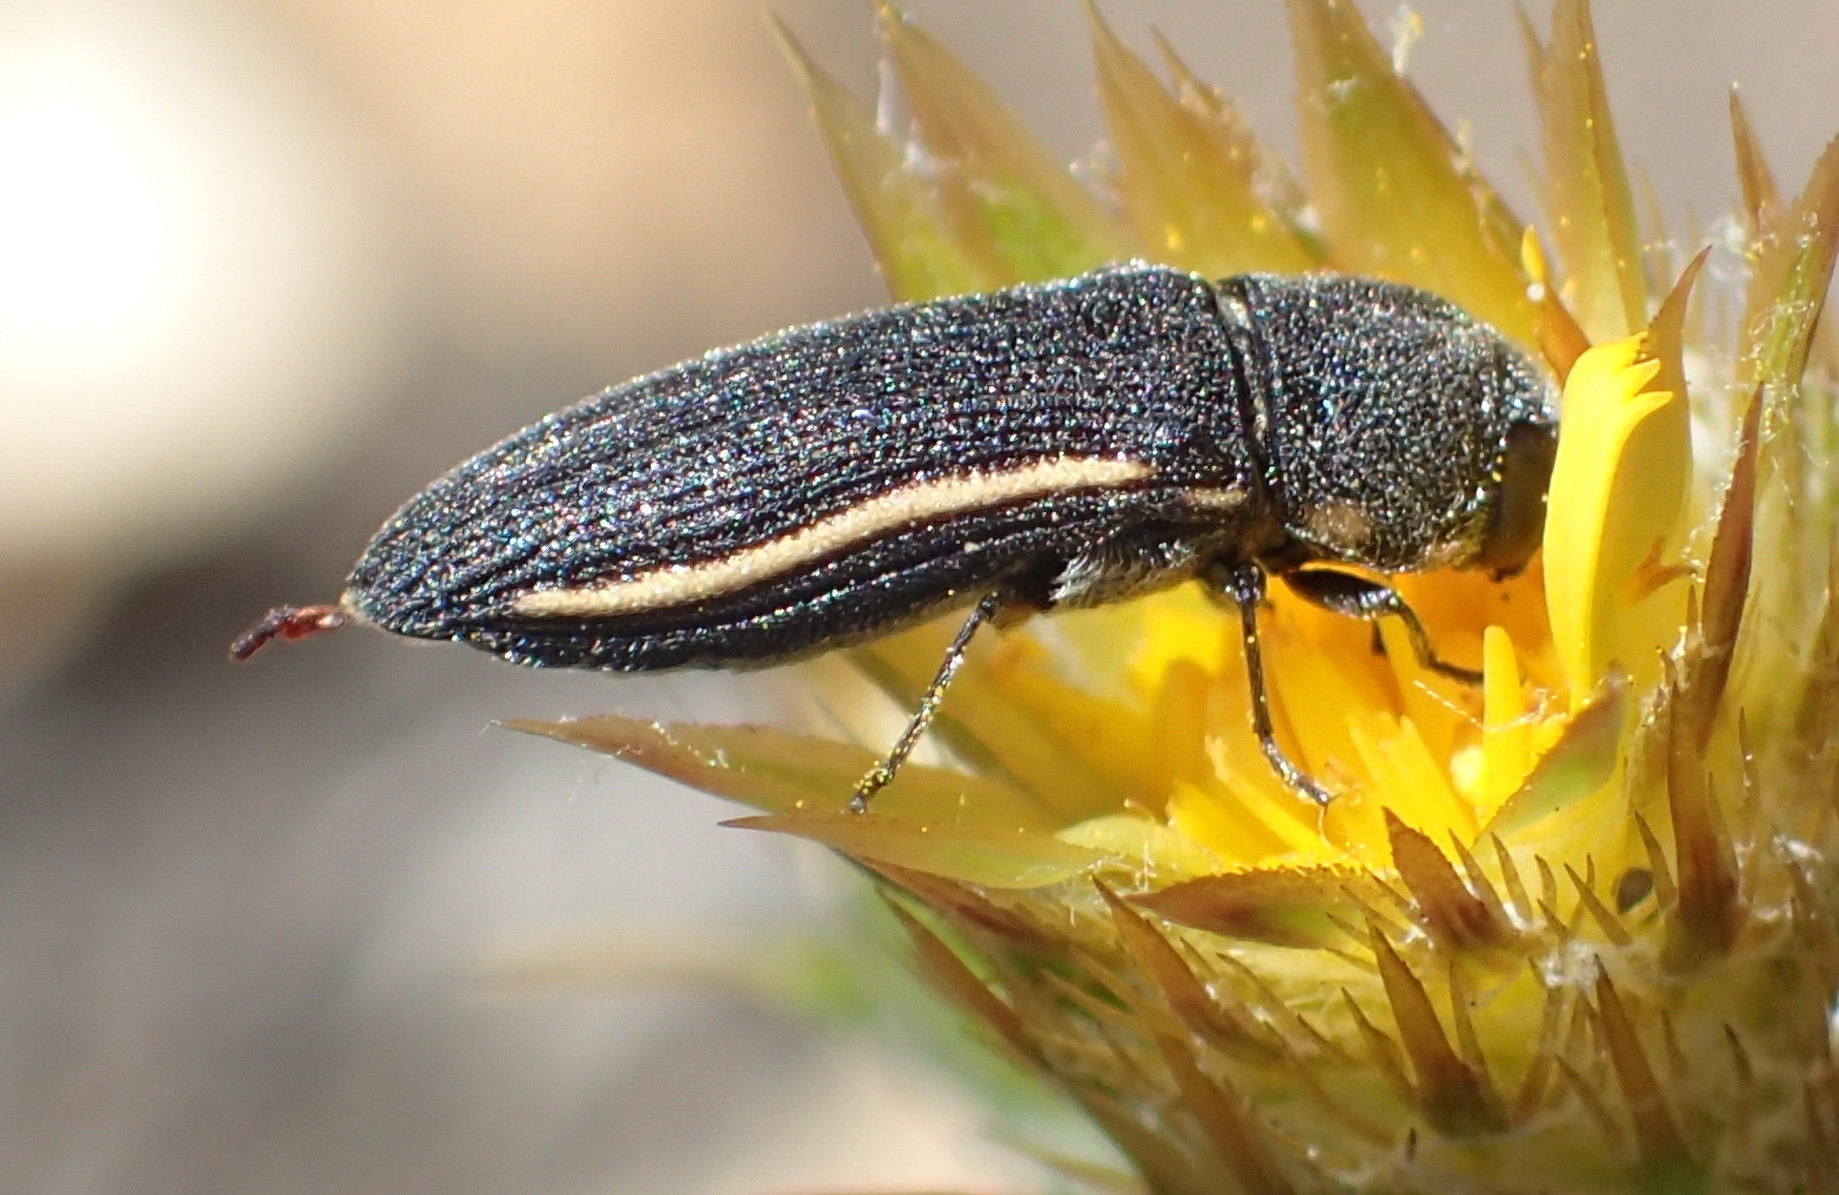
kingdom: Animalia
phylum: Arthropoda
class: Insecta
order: Coleoptera
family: Buprestidae
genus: Acmaeodera
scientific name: Acmaeodera gracilis
